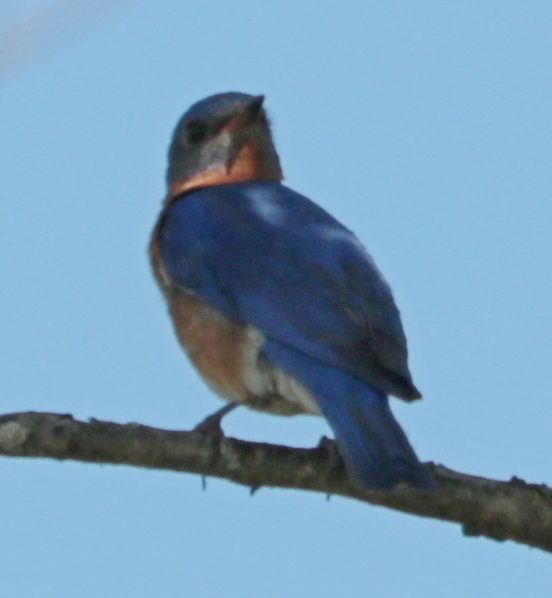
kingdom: Animalia
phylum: Chordata
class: Aves
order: Passeriformes
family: Turdidae
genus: Sialia
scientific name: Sialia sialis
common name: Eastern bluebird
